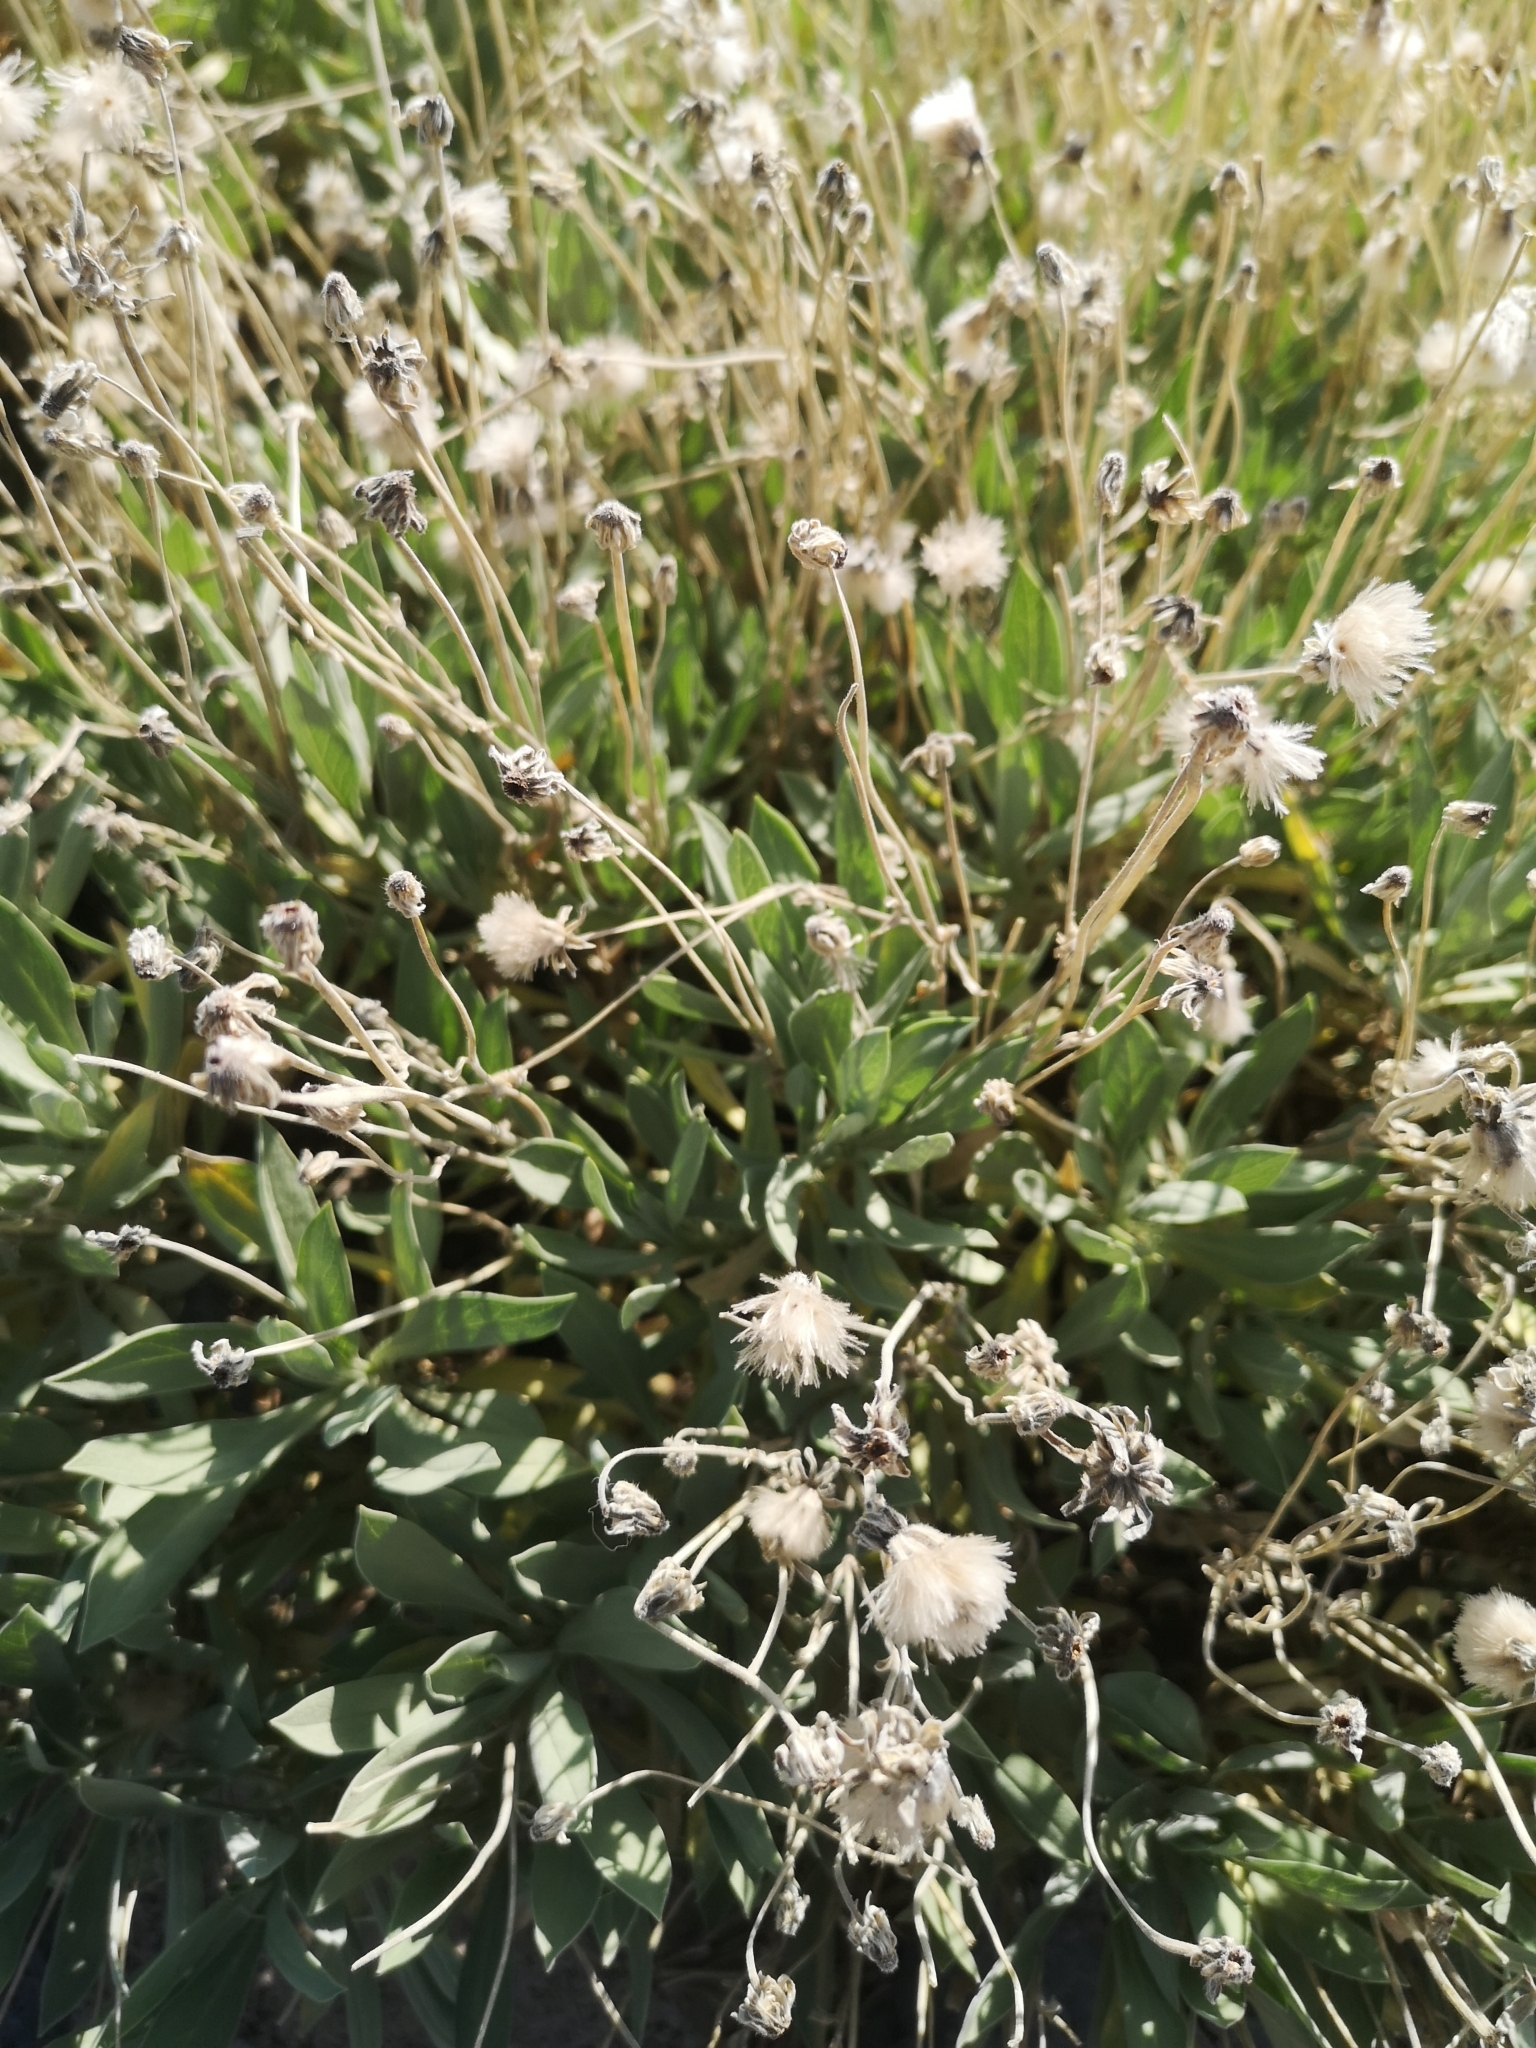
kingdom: Plantae
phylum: Tracheophyta
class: Magnoliopsida
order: Dipsacales
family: Caprifoliaceae
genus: Pterocephalus
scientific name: Pterocephalus lasiospermus
